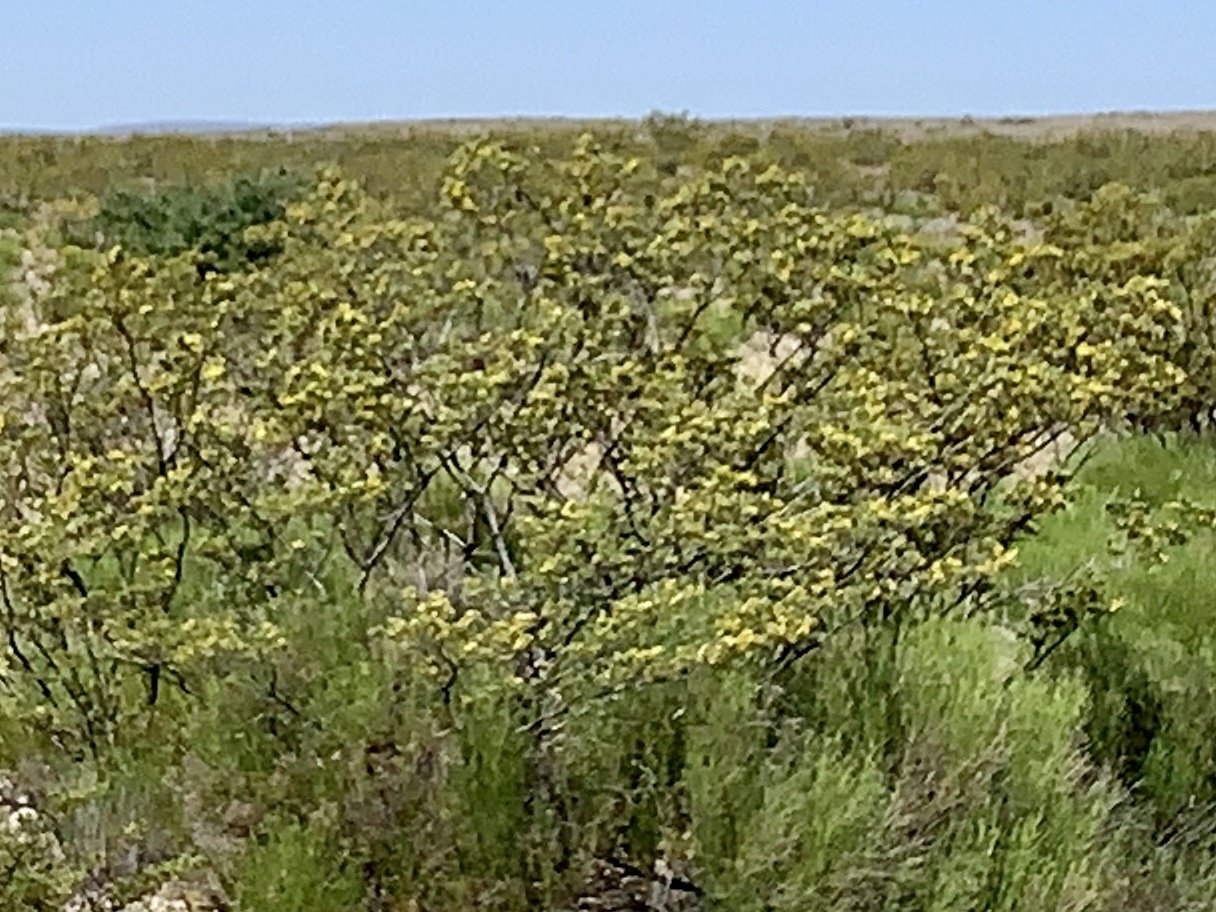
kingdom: Plantae
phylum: Tracheophyta
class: Magnoliopsida
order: Zygophyllales
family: Zygophyllaceae
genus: Larrea
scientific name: Larrea tridentata
